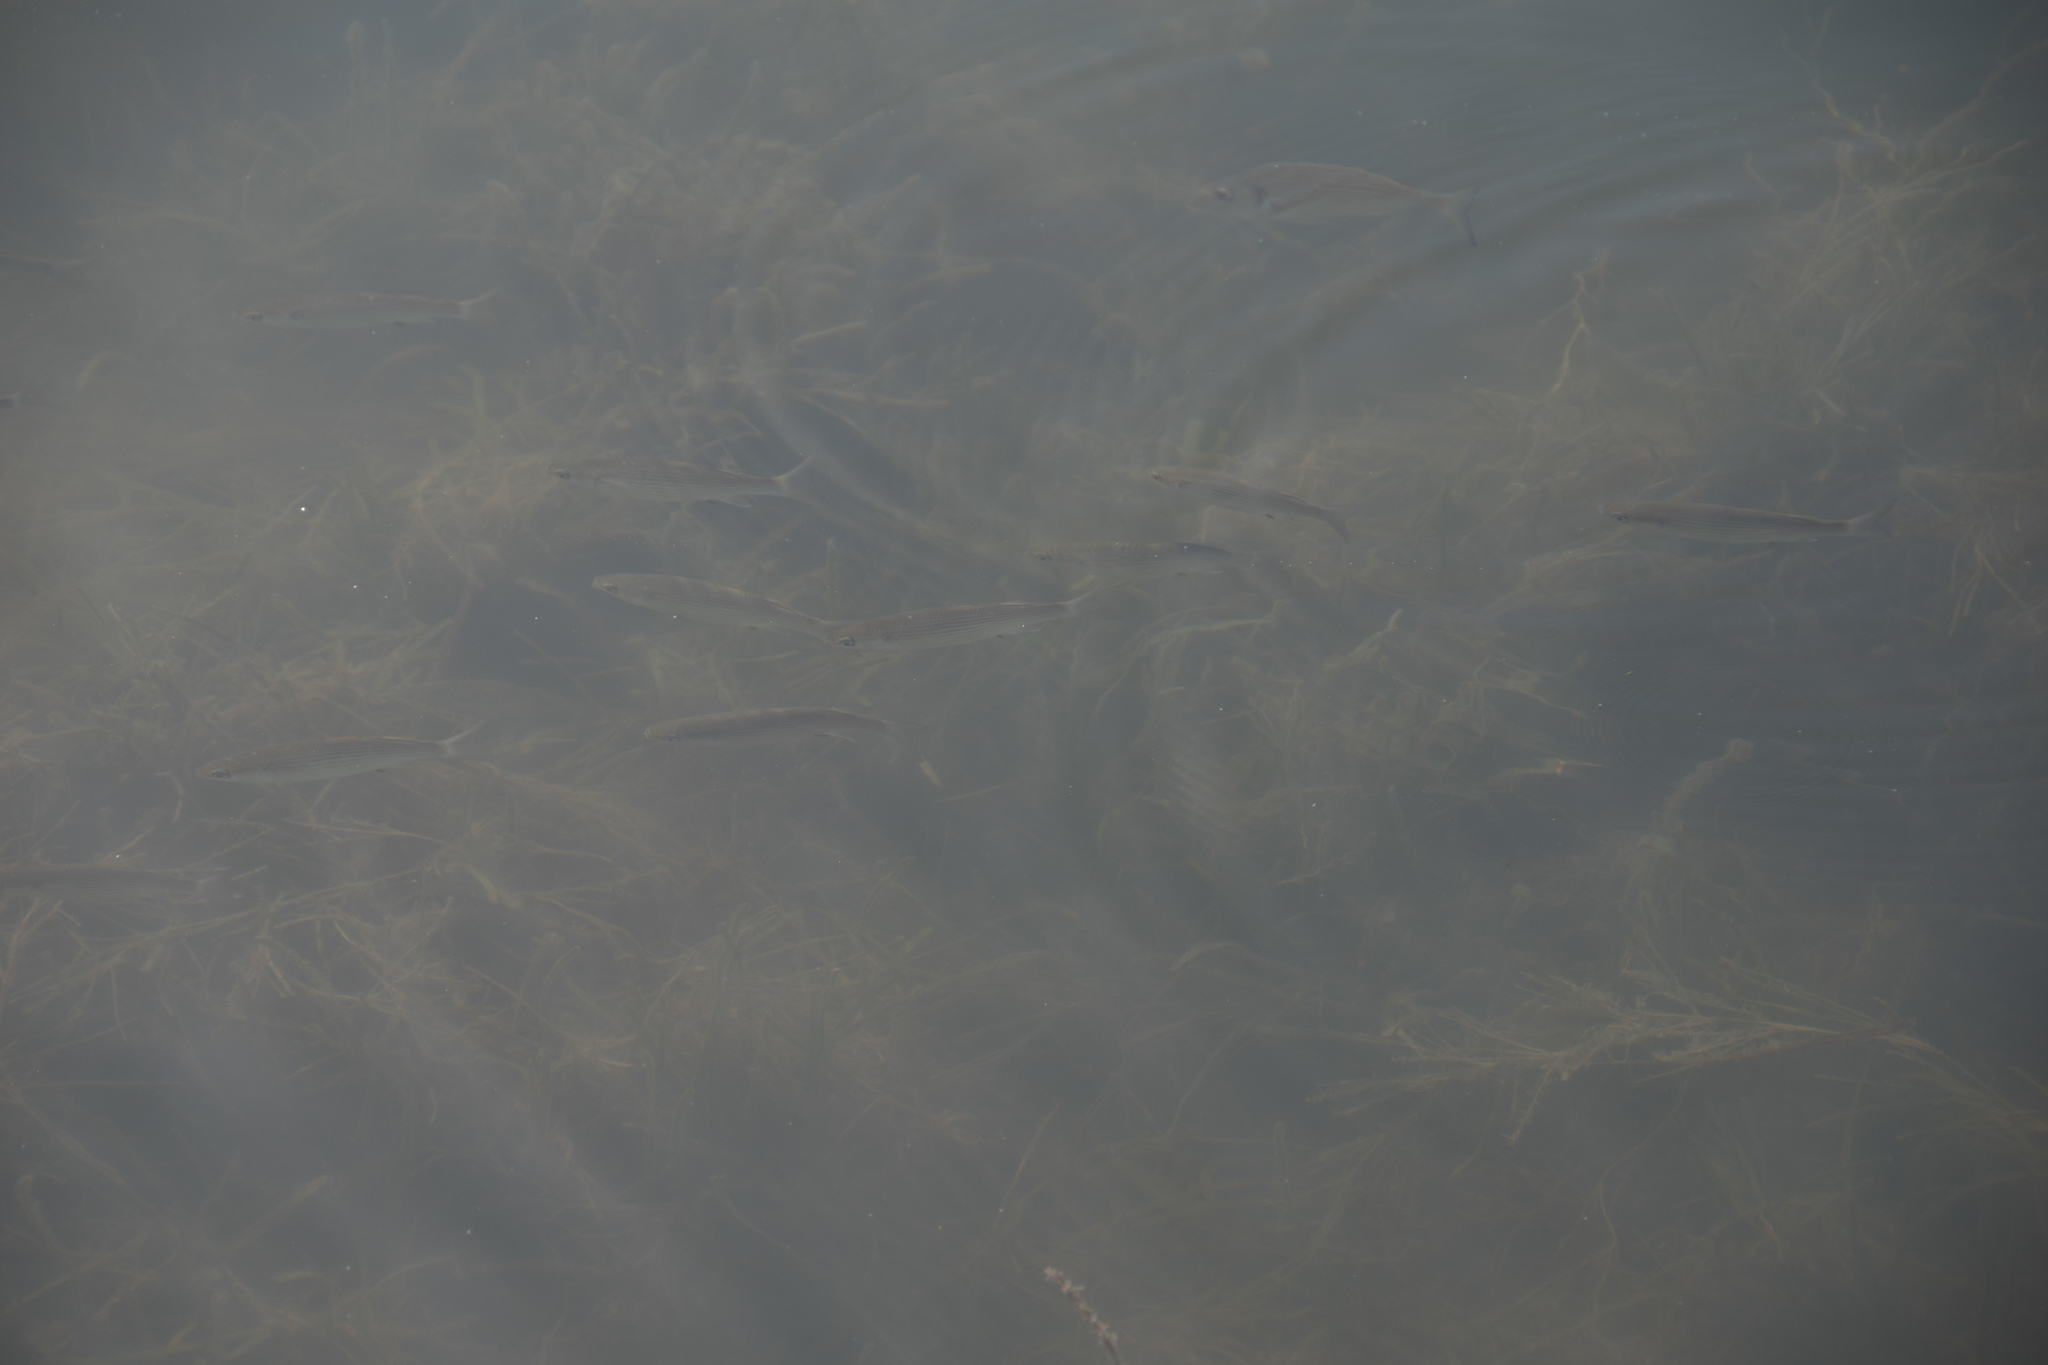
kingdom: Animalia
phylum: Chordata
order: Perciformes
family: Sparidae
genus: Sparus
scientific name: Sparus aurata
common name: Gilthead
